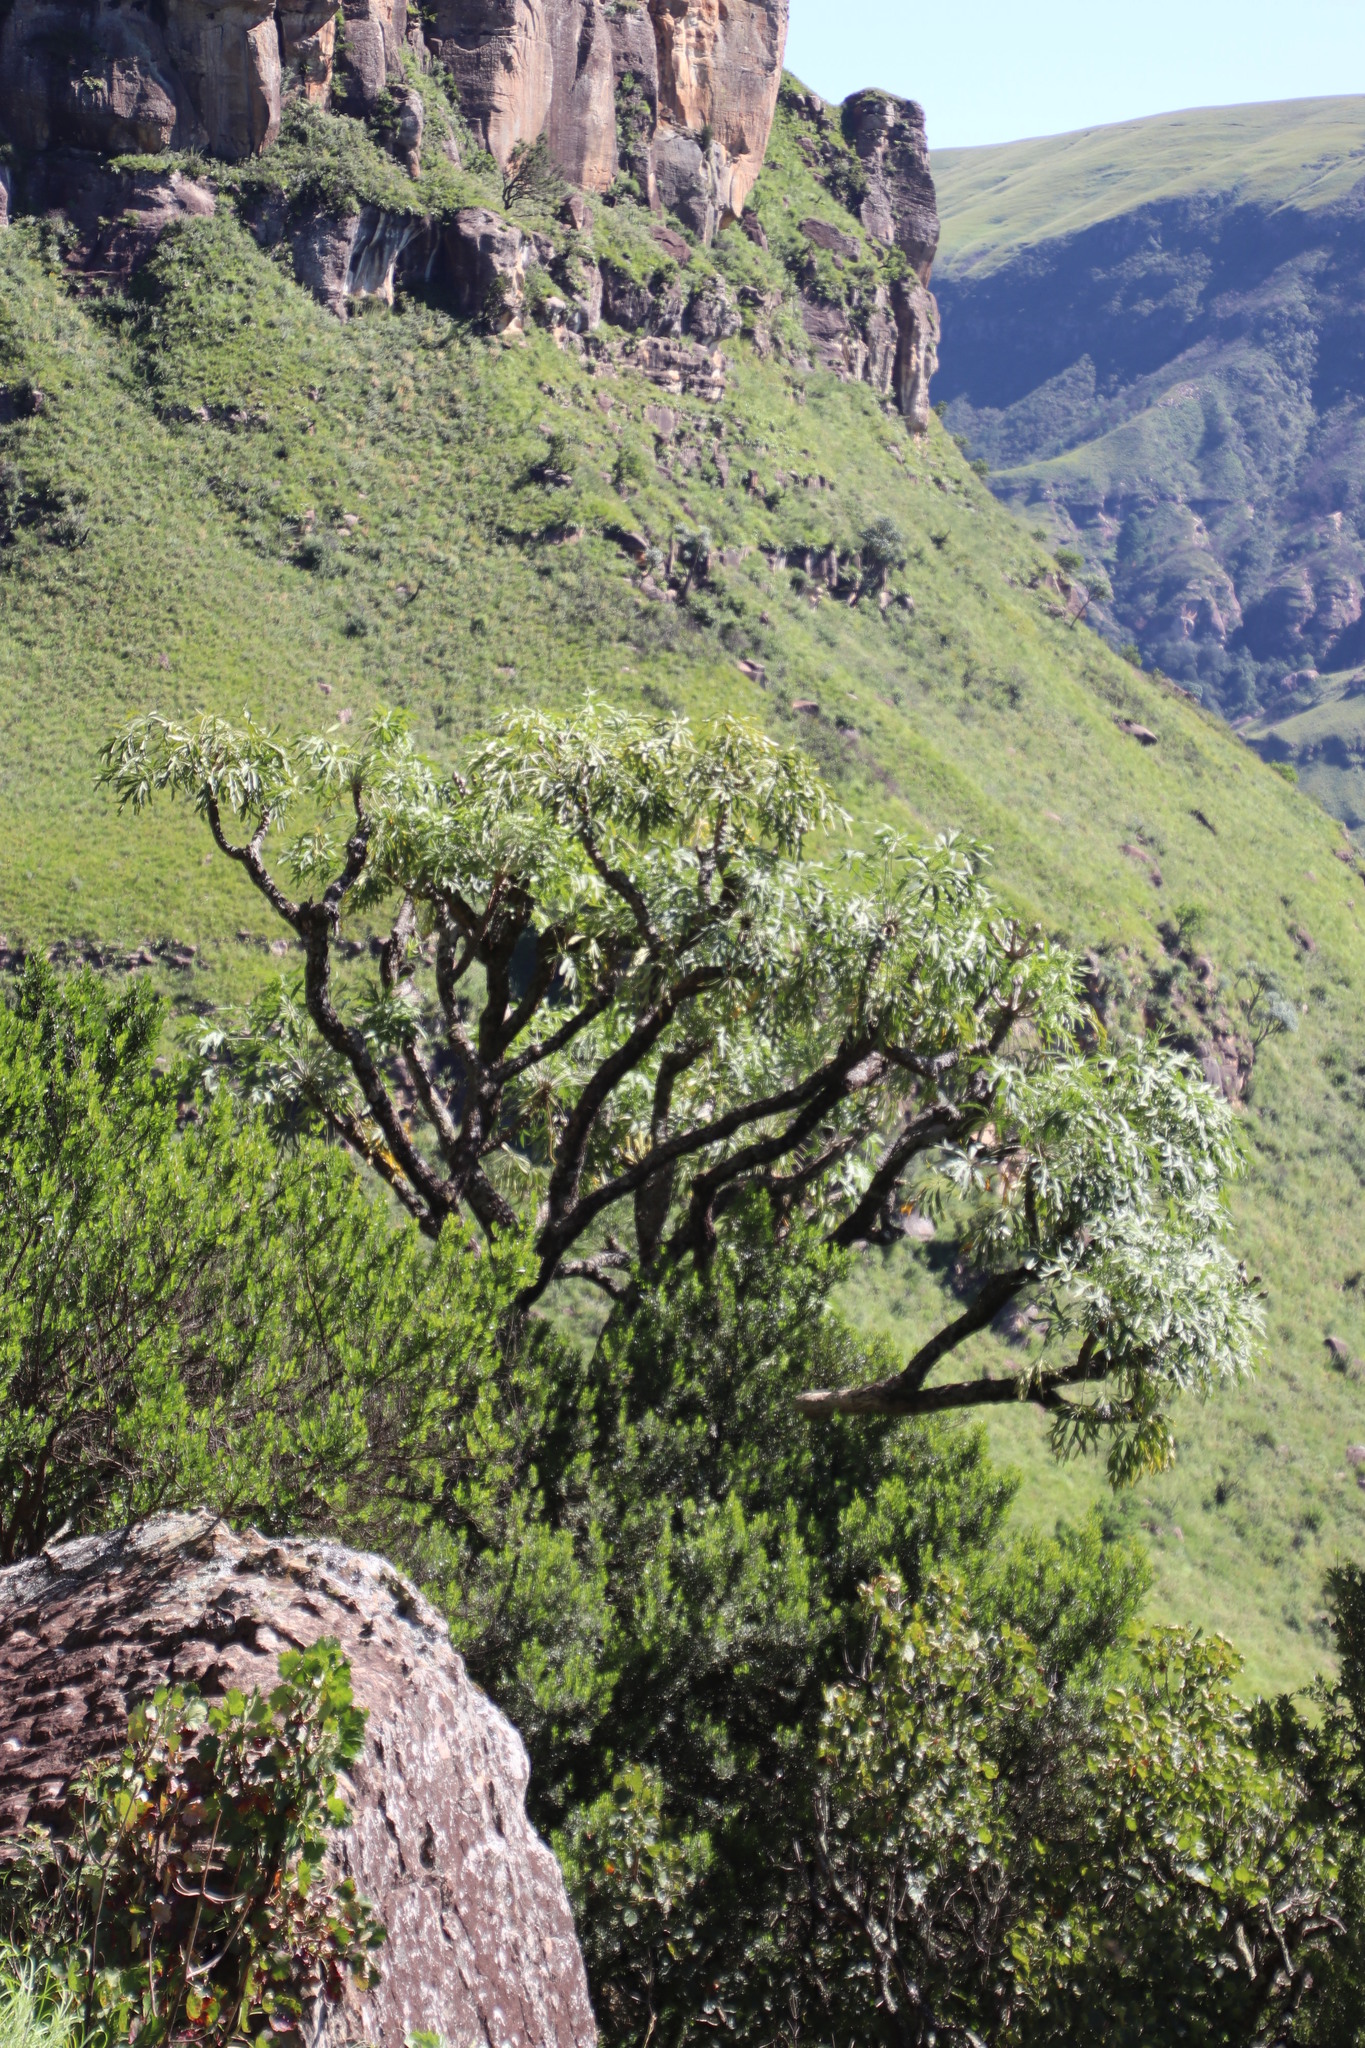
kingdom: Plantae
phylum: Tracheophyta
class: Magnoliopsida
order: Apiales
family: Araliaceae
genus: Cussonia
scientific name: Cussonia spicata
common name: Common cabbagetree
